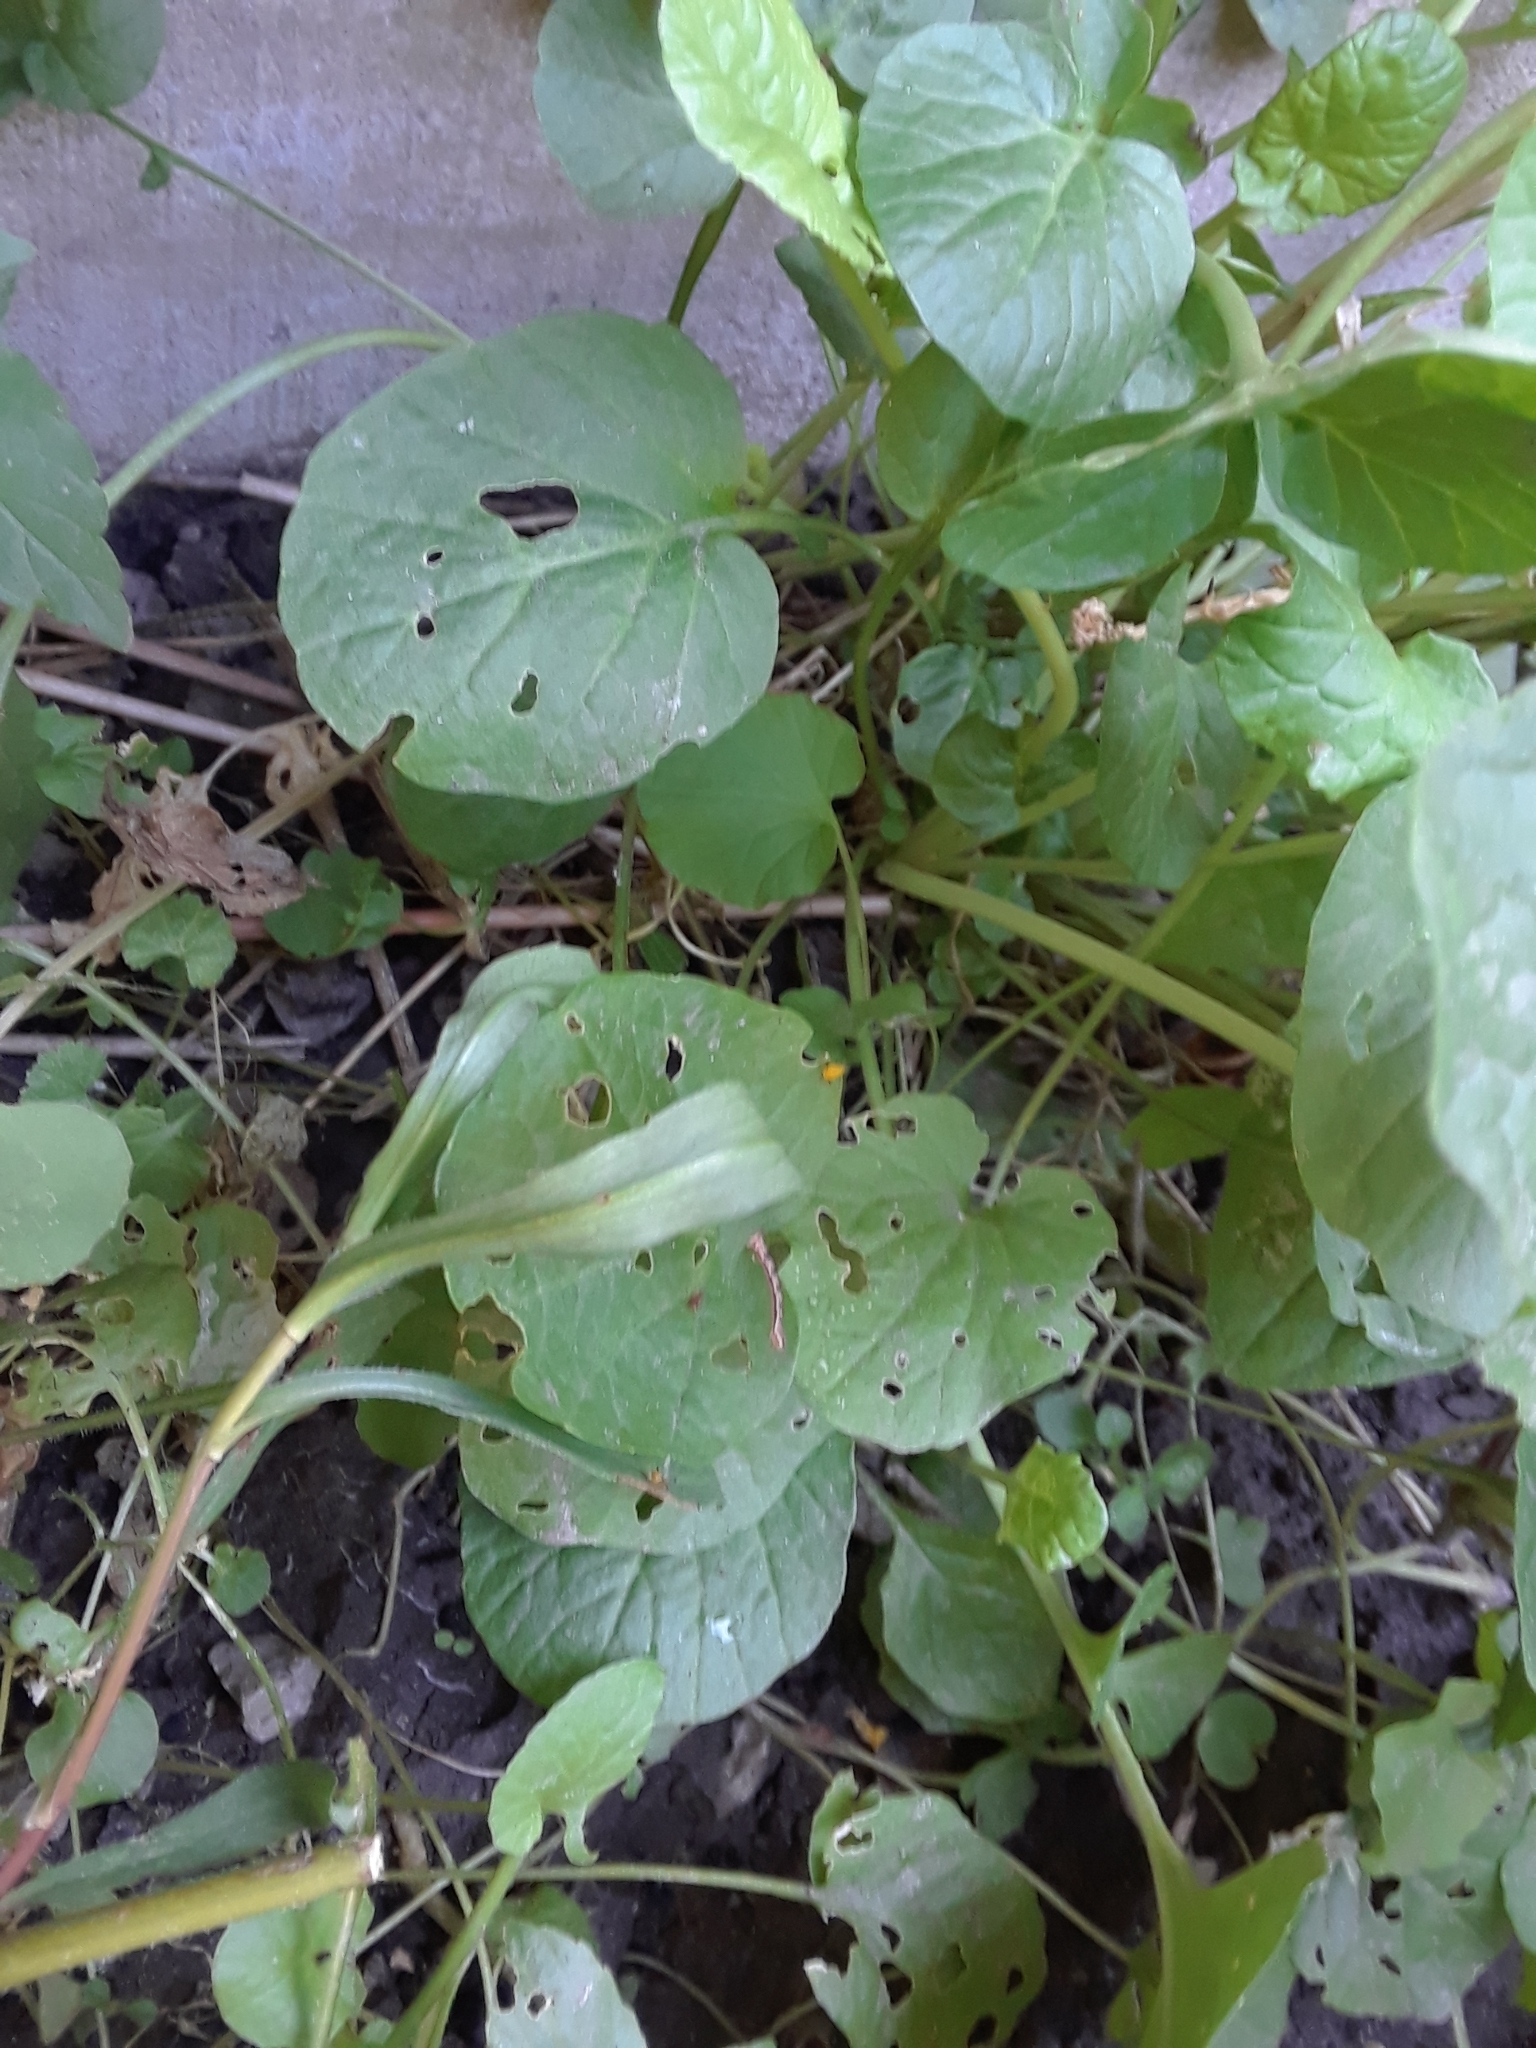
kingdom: Plantae
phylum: Tracheophyta
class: Magnoliopsida
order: Lamiales
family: Plantaginaceae
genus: Plantago
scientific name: Plantago major
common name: Common plantain
